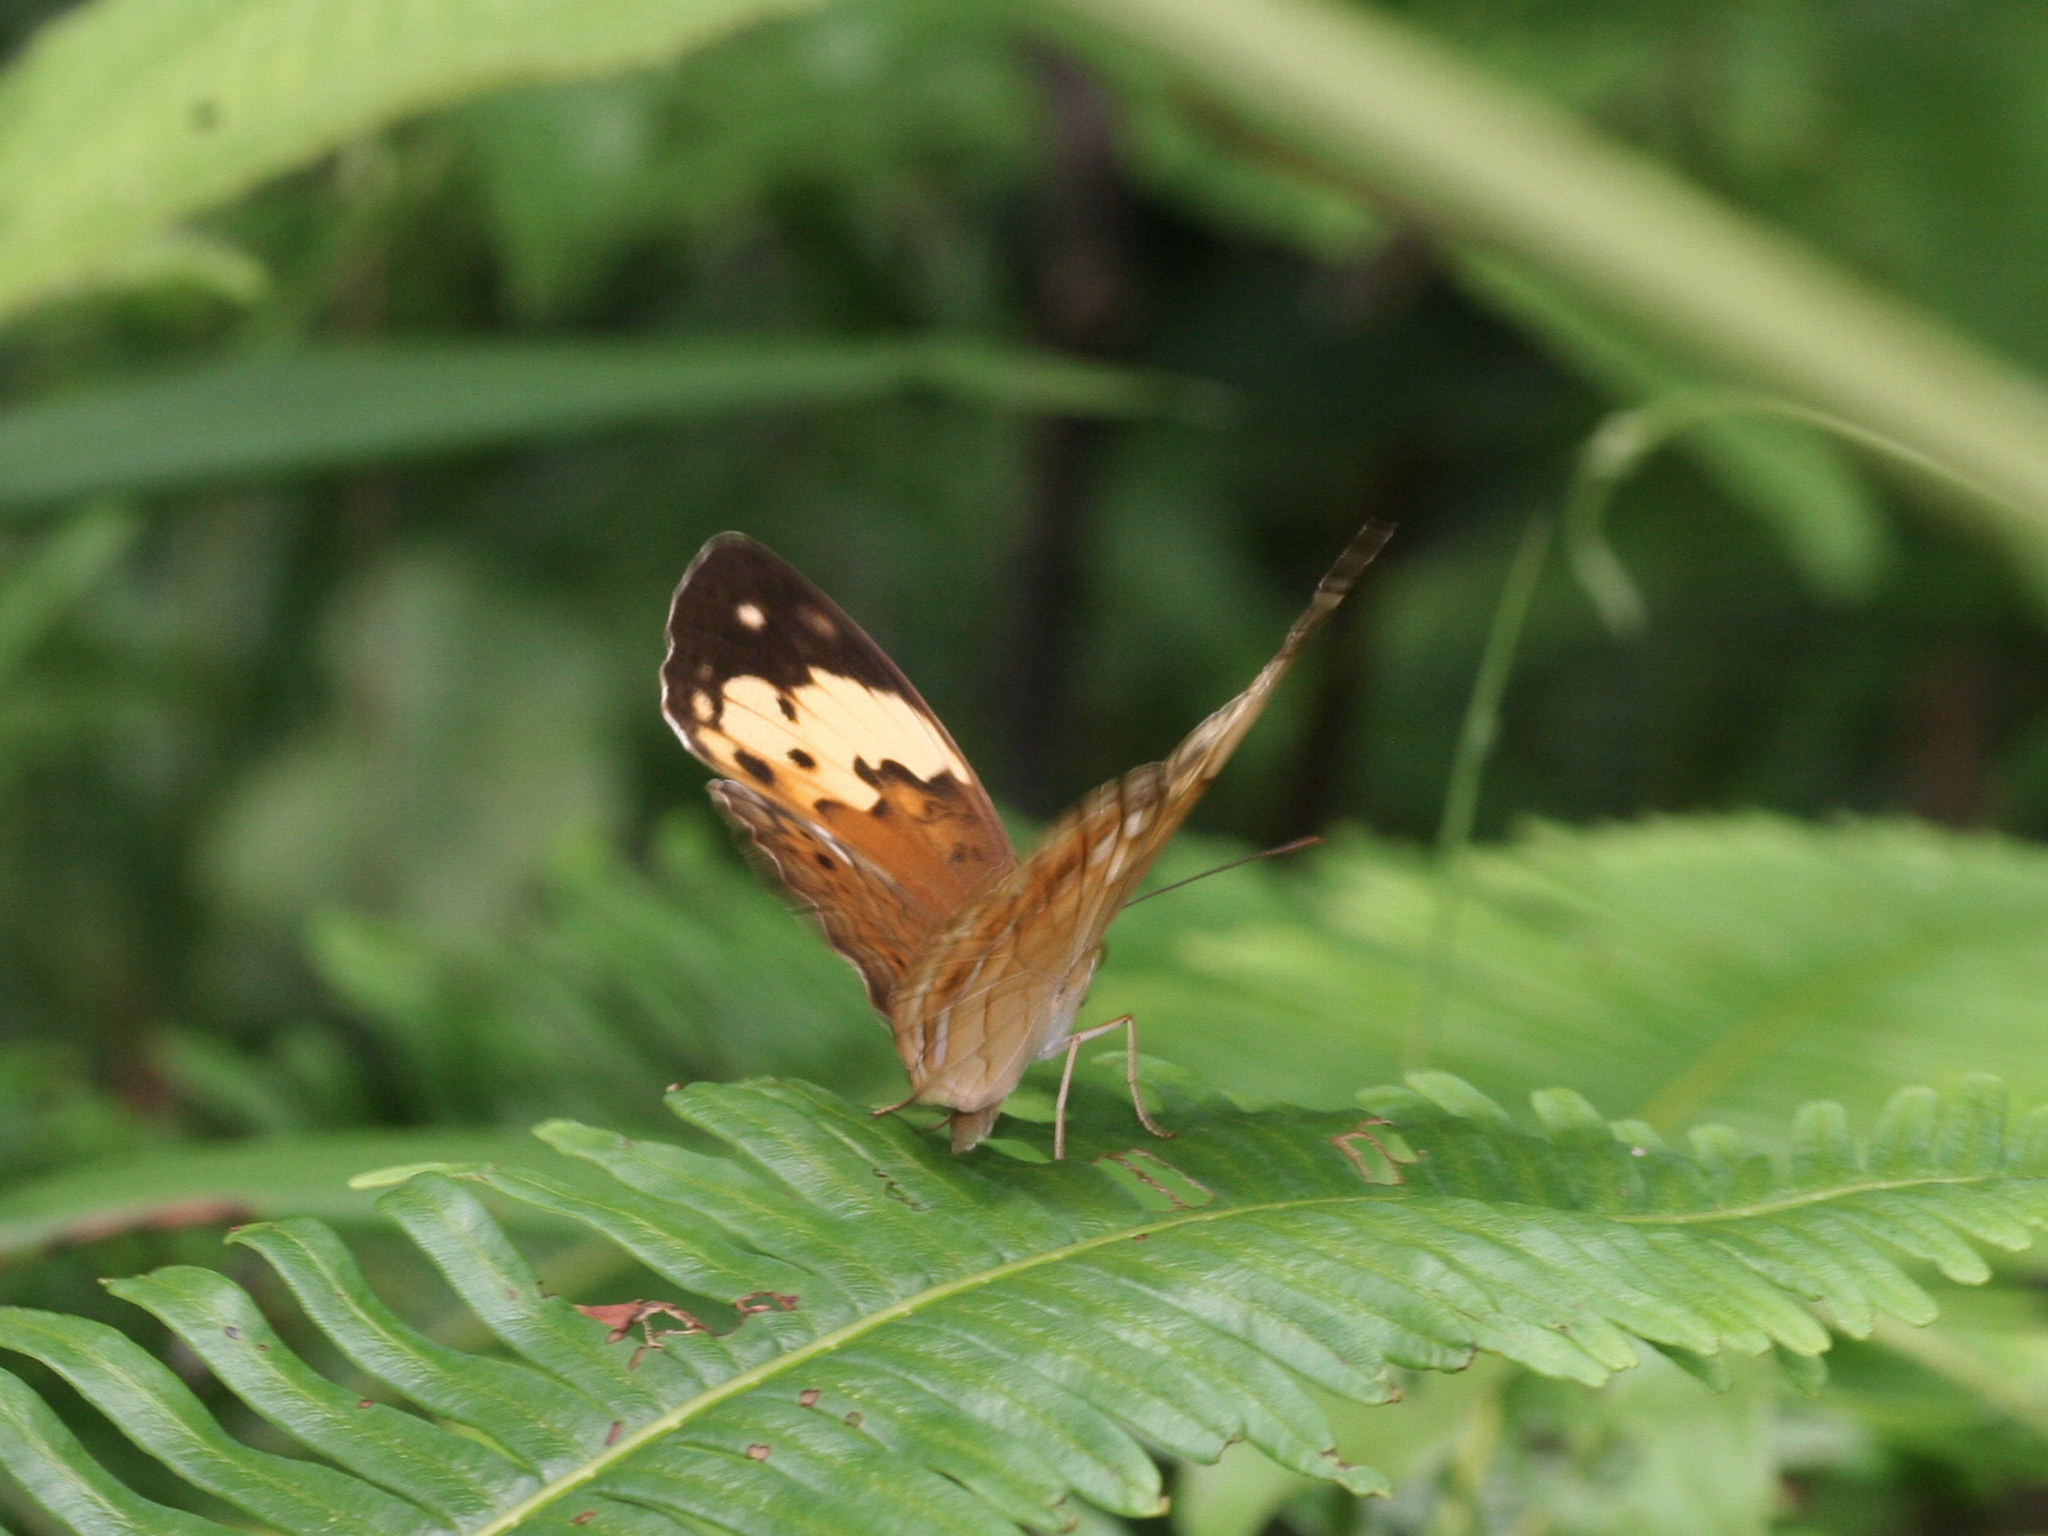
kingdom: Animalia
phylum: Arthropoda
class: Insecta
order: Lepidoptera
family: Nymphalidae
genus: Cupha
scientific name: Cupha erymanthis
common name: Rustic
